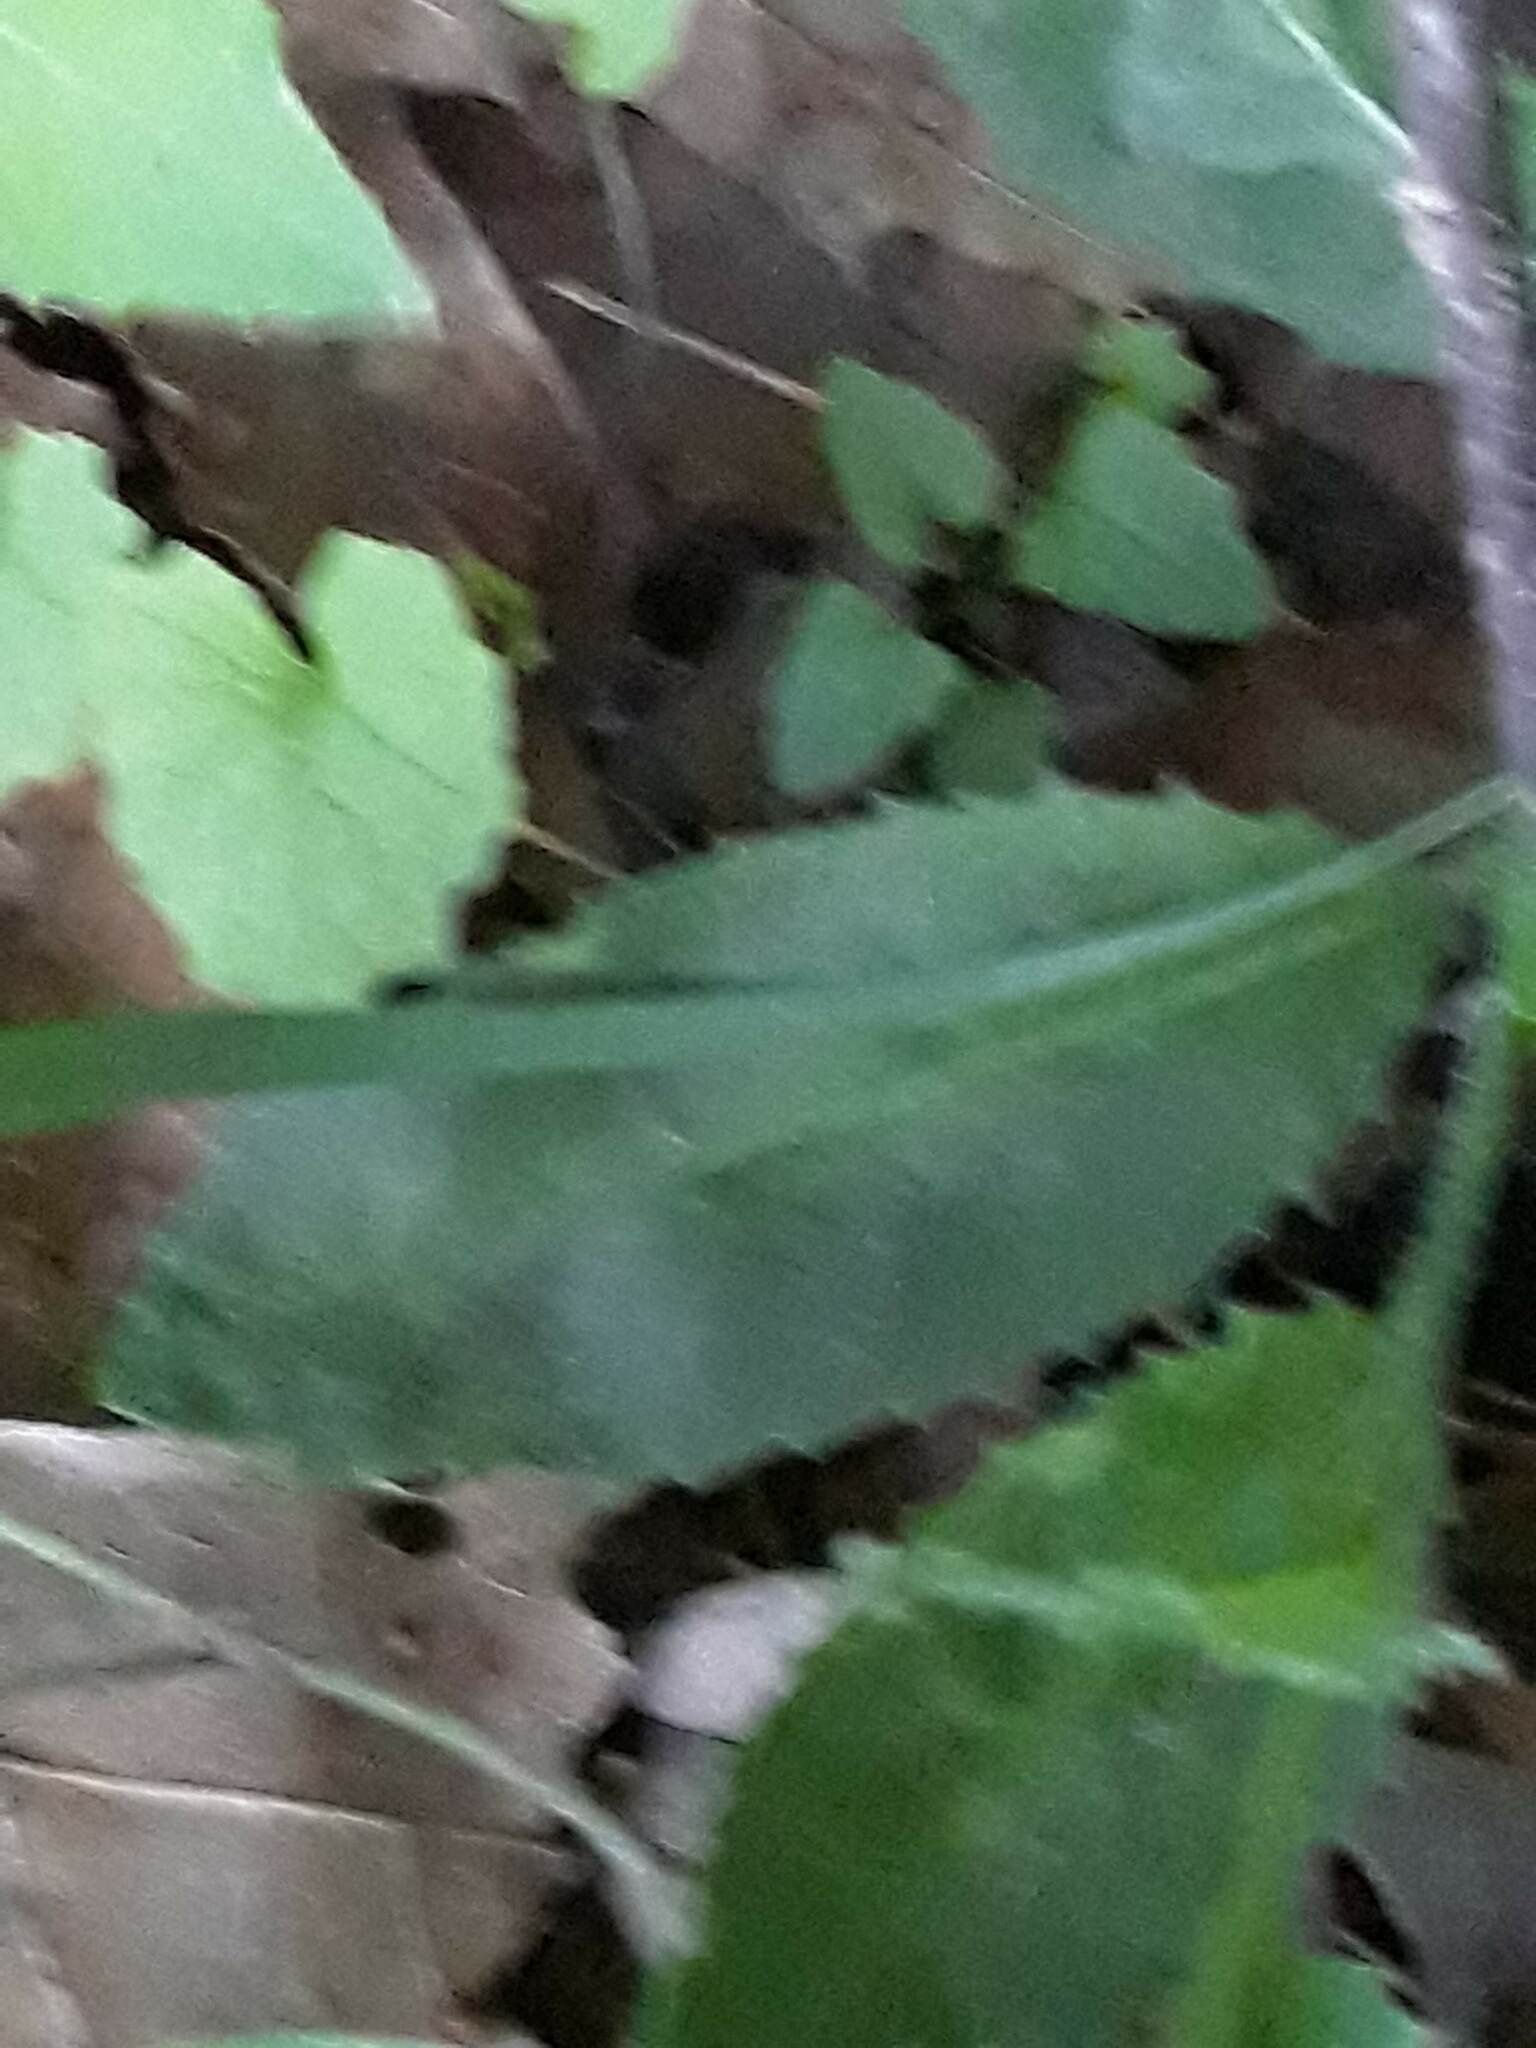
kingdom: Plantae
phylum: Tracheophyta
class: Magnoliopsida
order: Brassicales
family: Brassicaceae
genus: Hesperis
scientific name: Hesperis matronalis
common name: Dame's-violet
